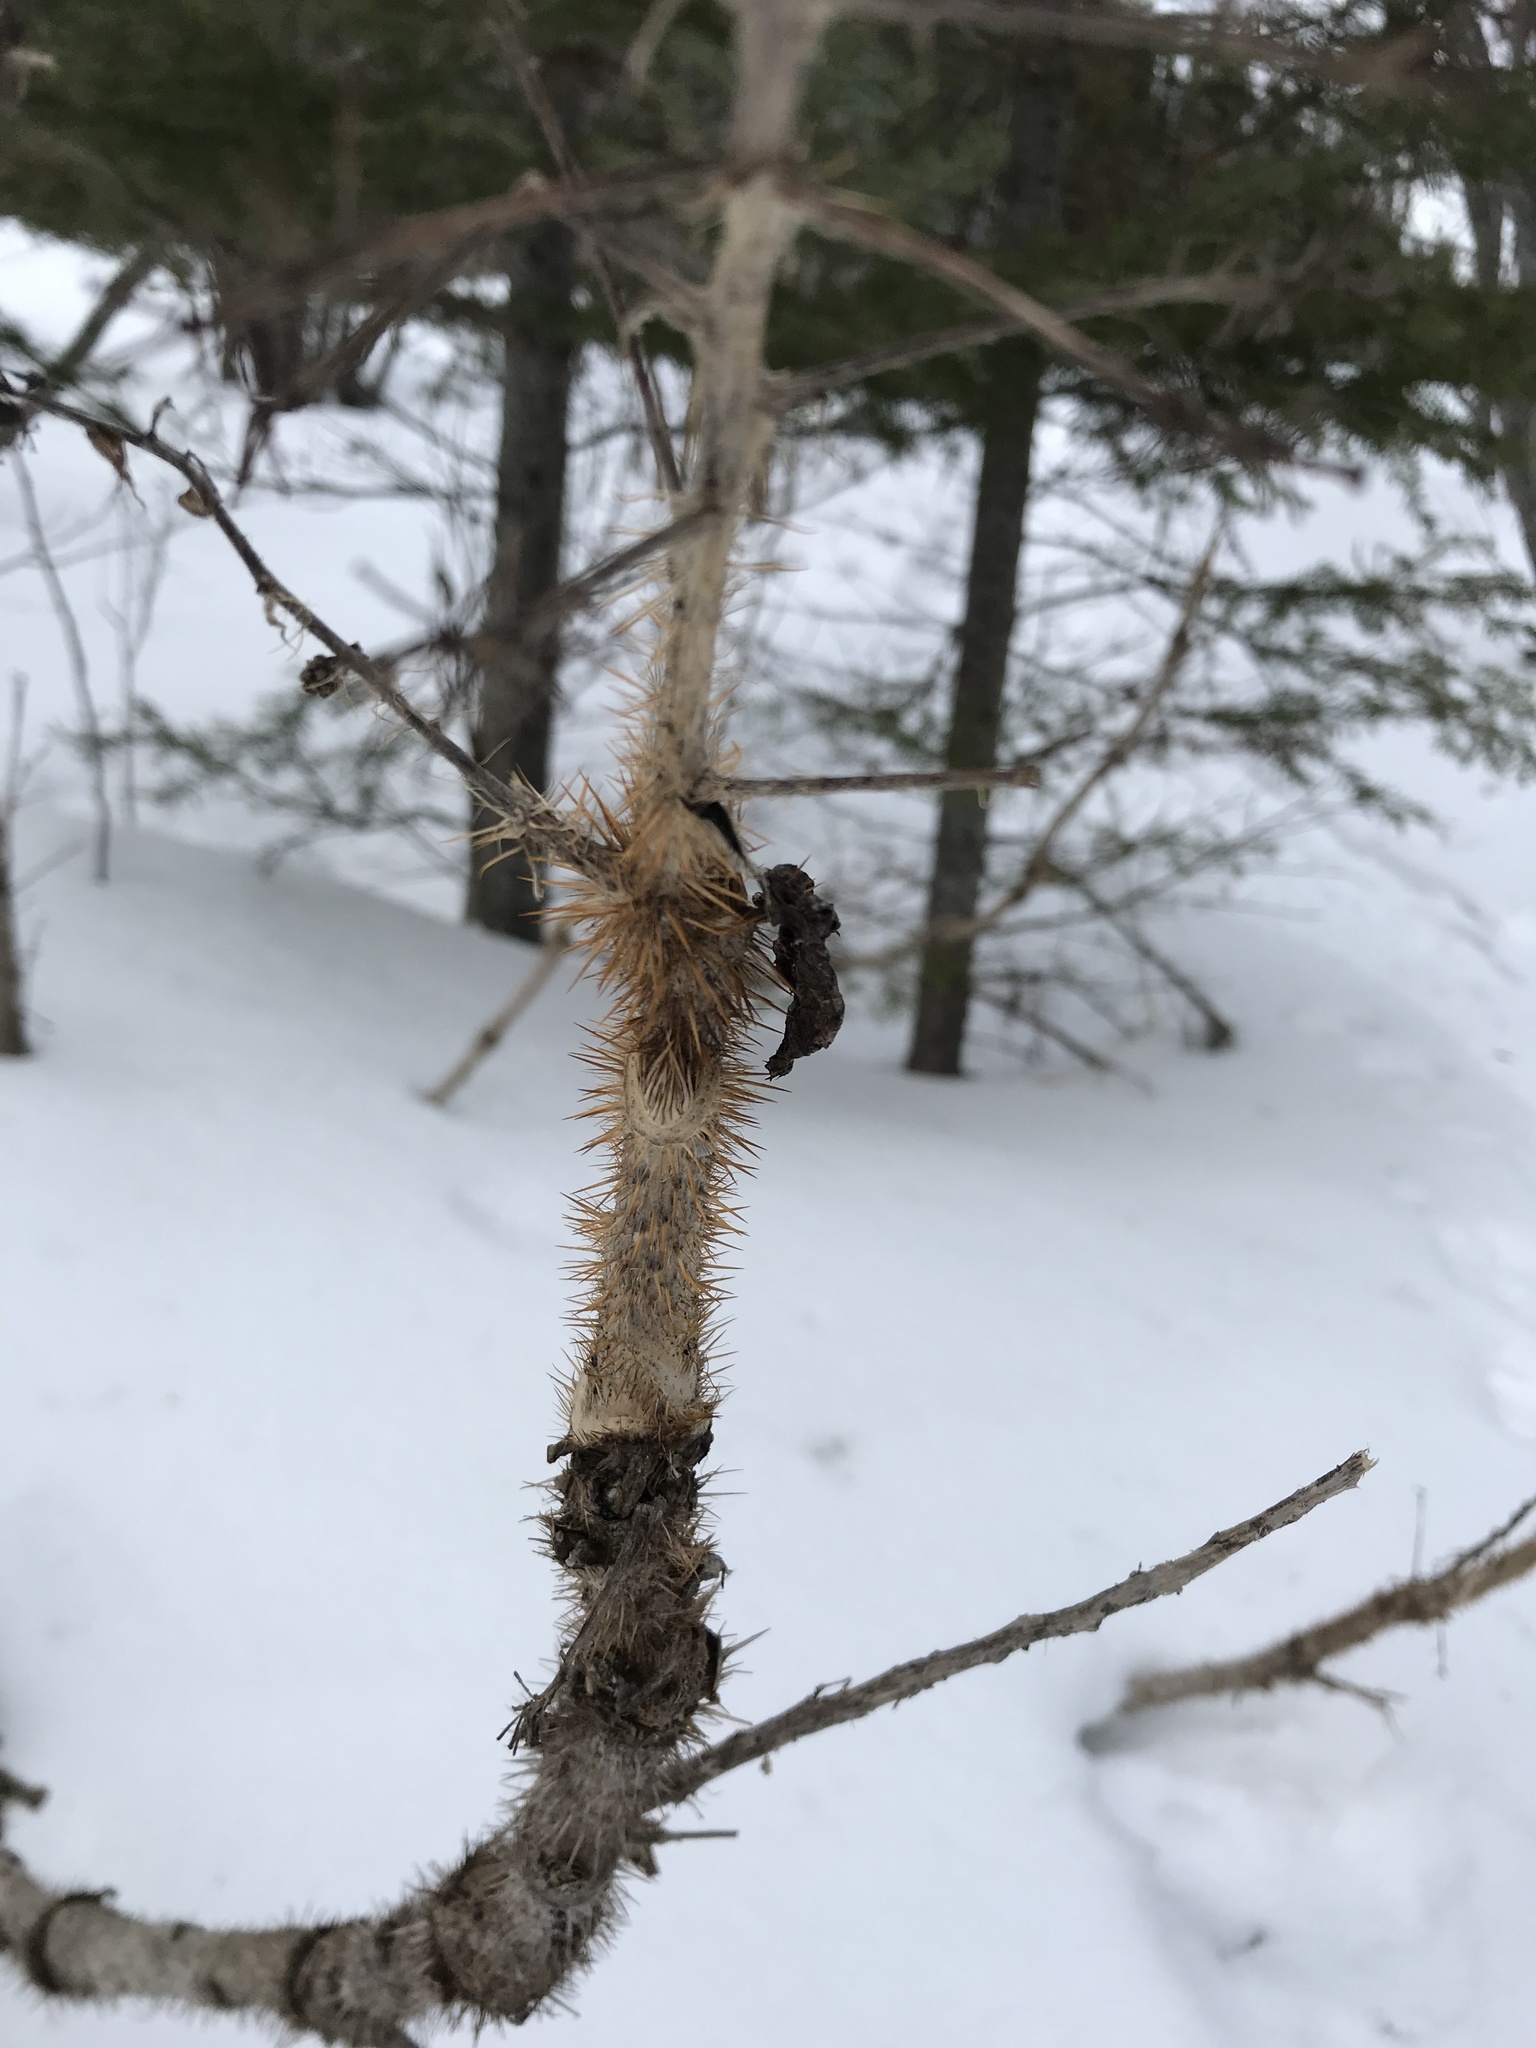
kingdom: Plantae
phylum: Tracheophyta
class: Magnoliopsida
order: Apiales
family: Araliaceae
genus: Oplopanax
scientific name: Oplopanax horridus
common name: Devil's walking-stick
